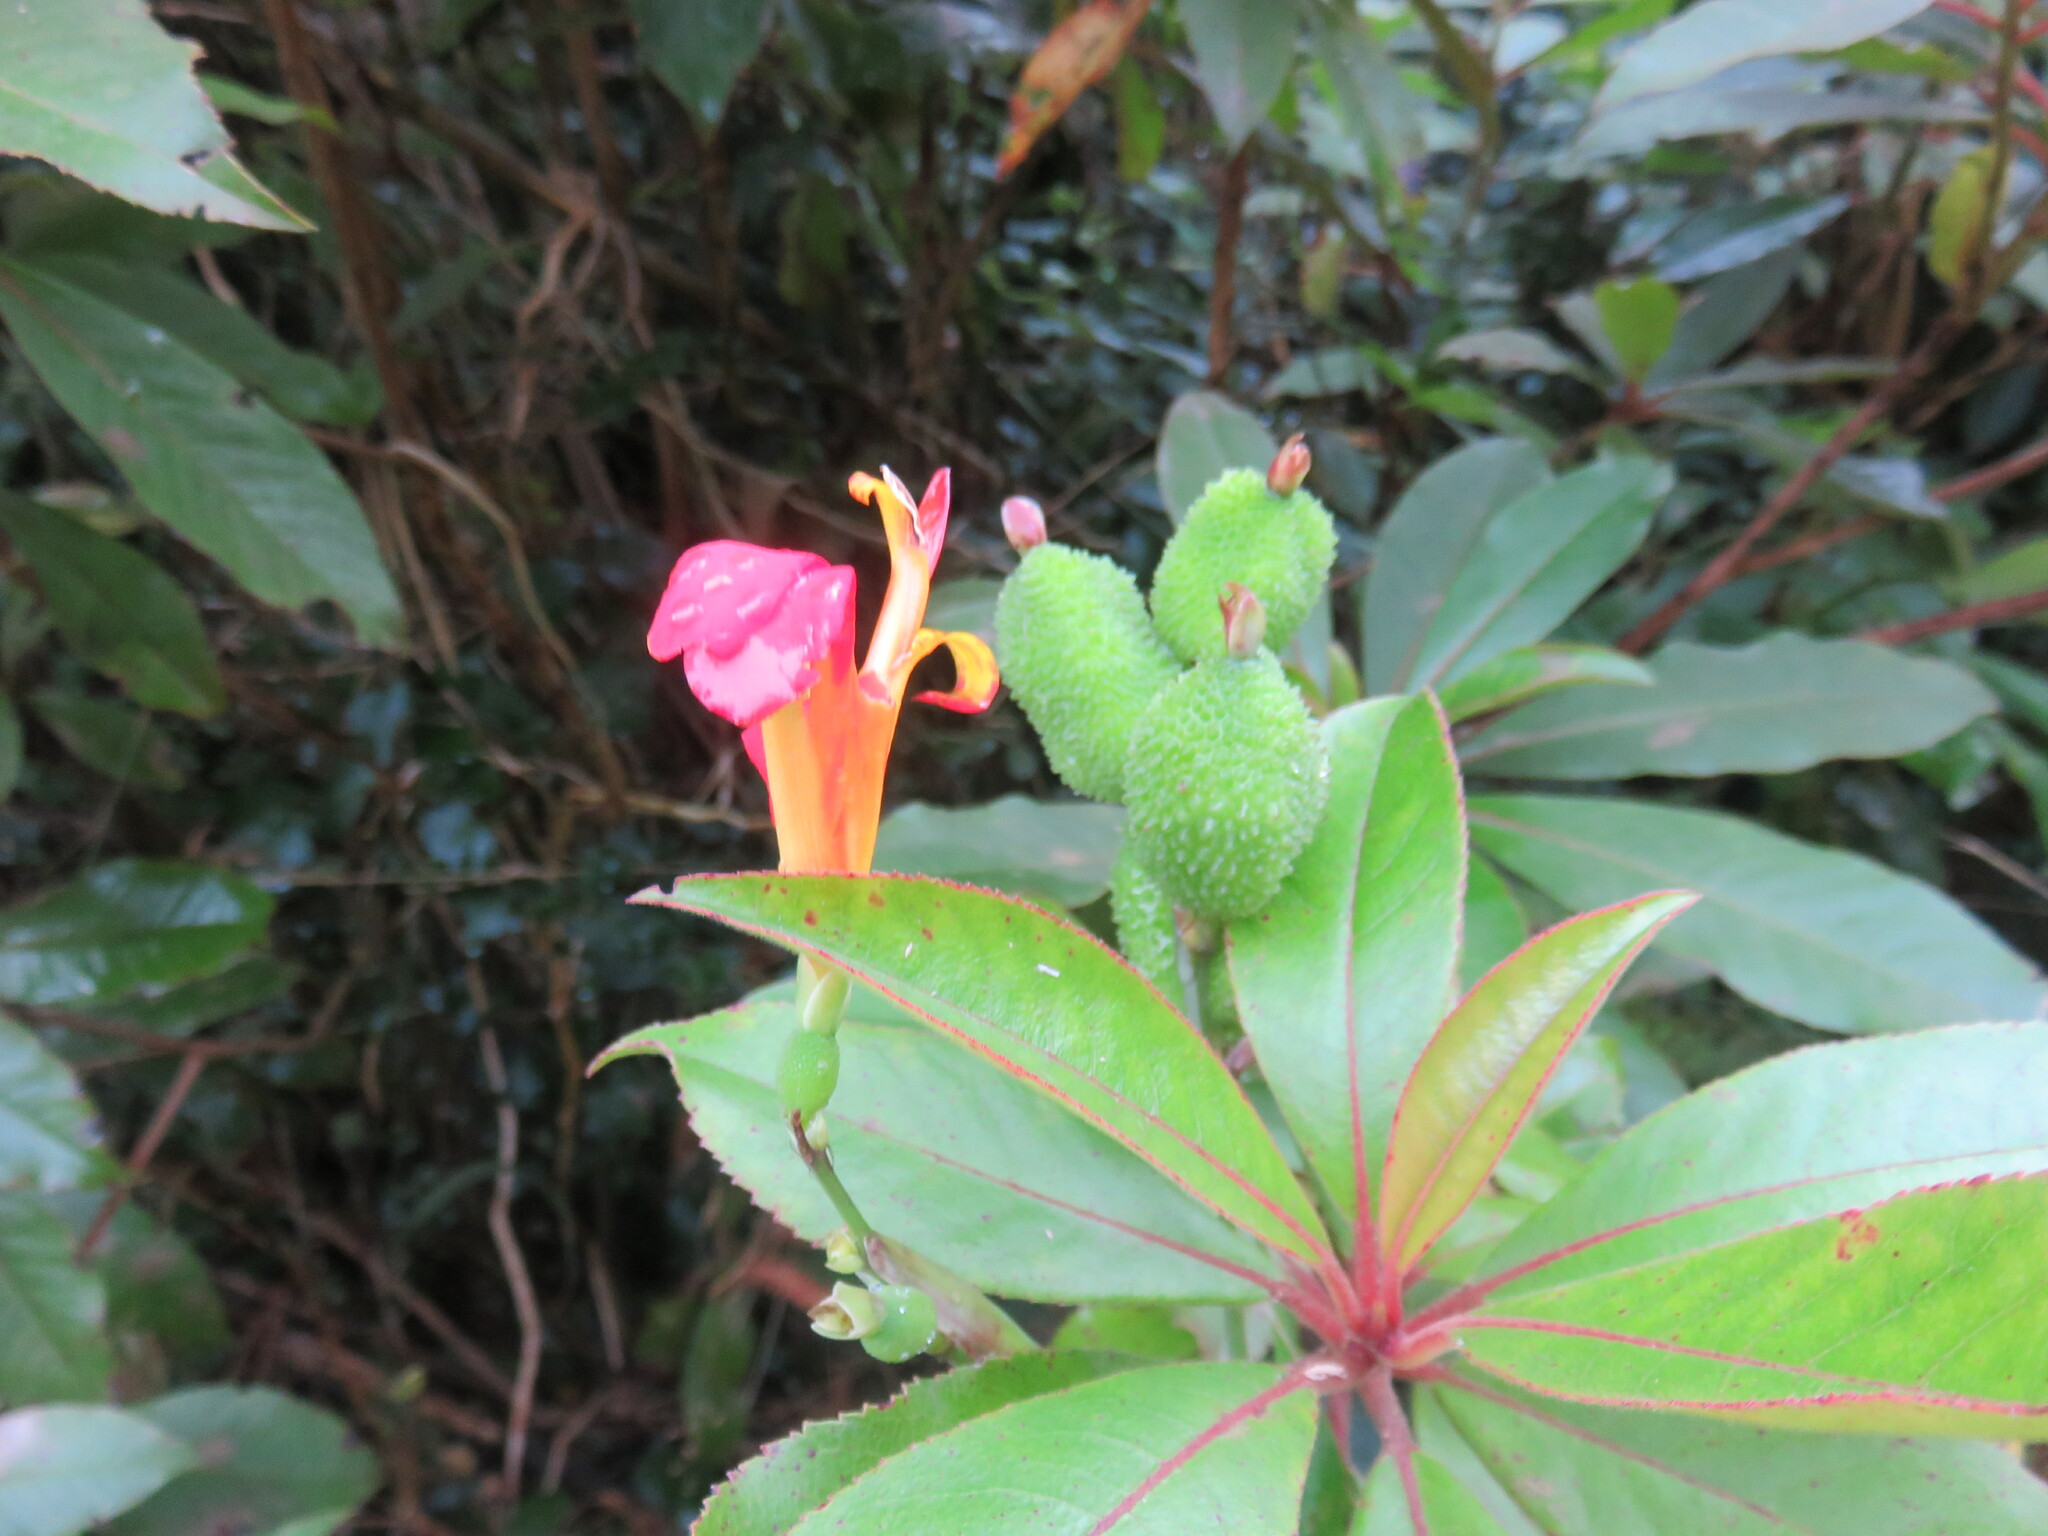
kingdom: Plantae
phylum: Tracheophyta
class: Liliopsida
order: Zingiberales
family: Cannaceae
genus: Canna
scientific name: Canna indica
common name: Indian shot
